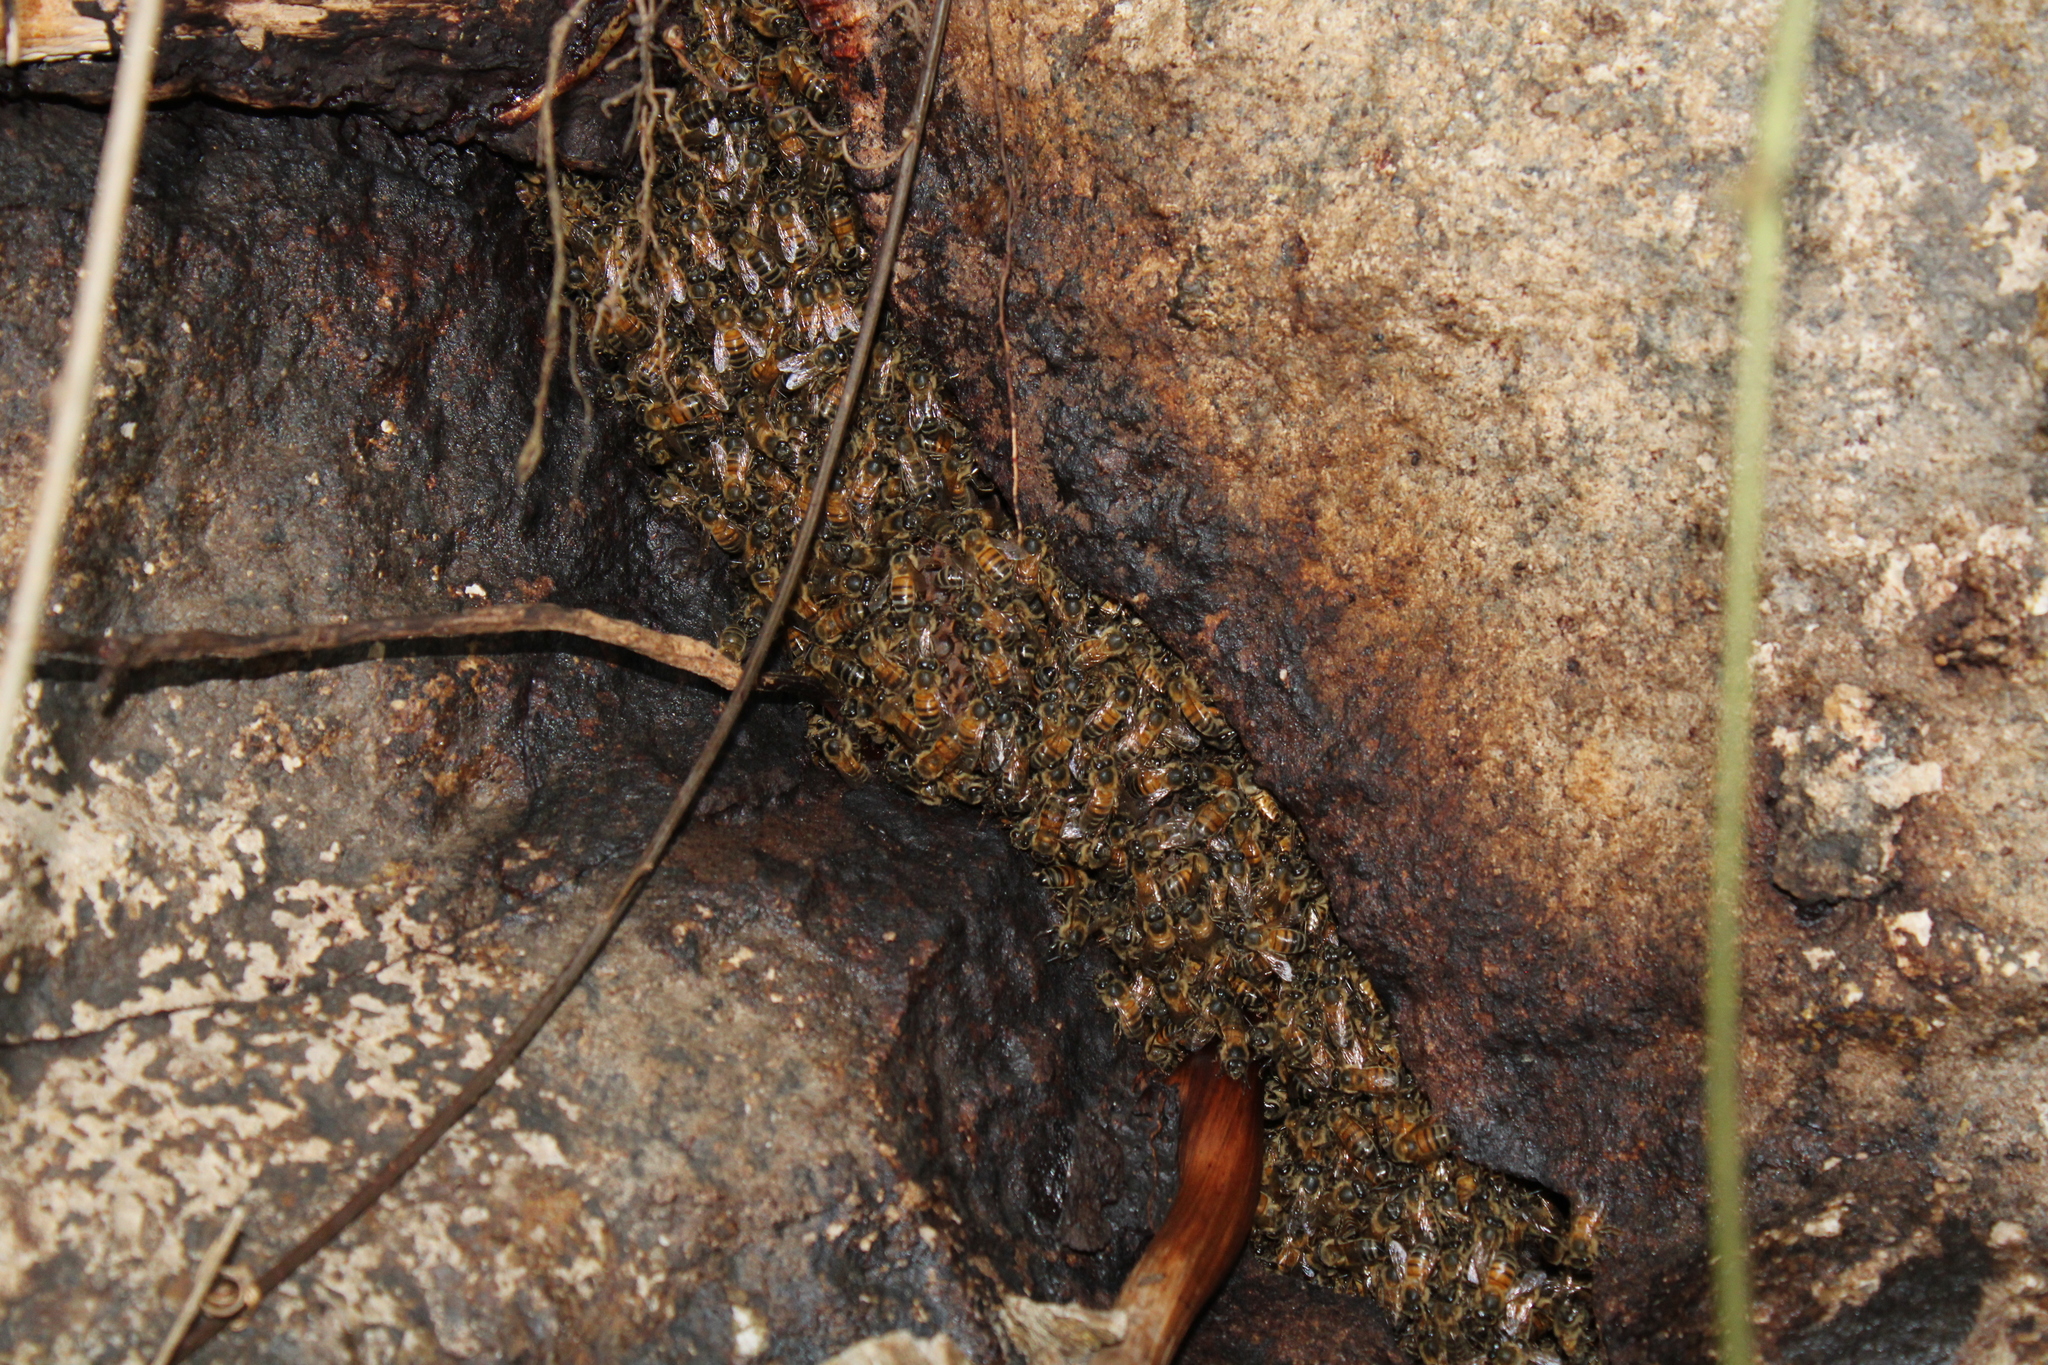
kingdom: Animalia
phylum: Arthropoda
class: Insecta
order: Hymenoptera
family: Apidae
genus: Apis
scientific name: Apis mellifera
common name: Honey bee
